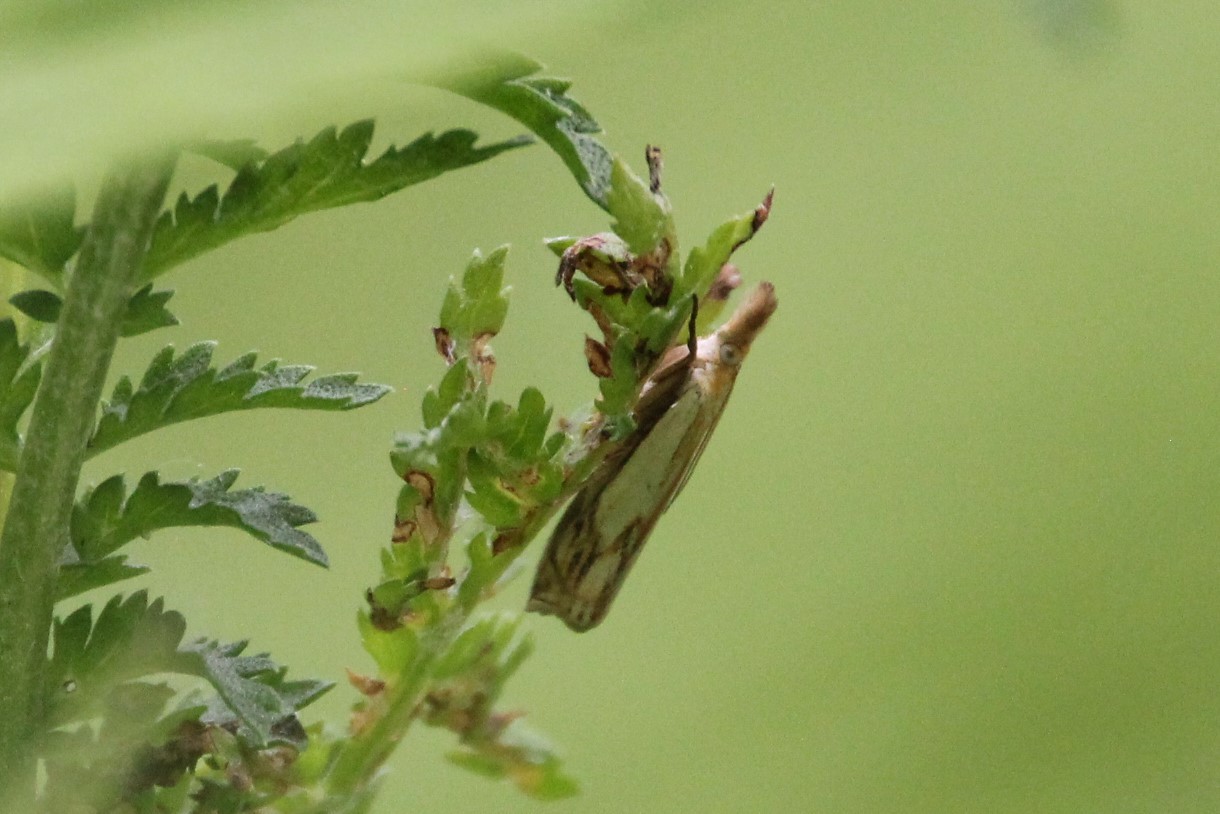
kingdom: Animalia
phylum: Arthropoda
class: Insecta
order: Lepidoptera
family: Crambidae
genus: Crambus
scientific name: Crambus agitatellus
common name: Double-banded grass-veneer
